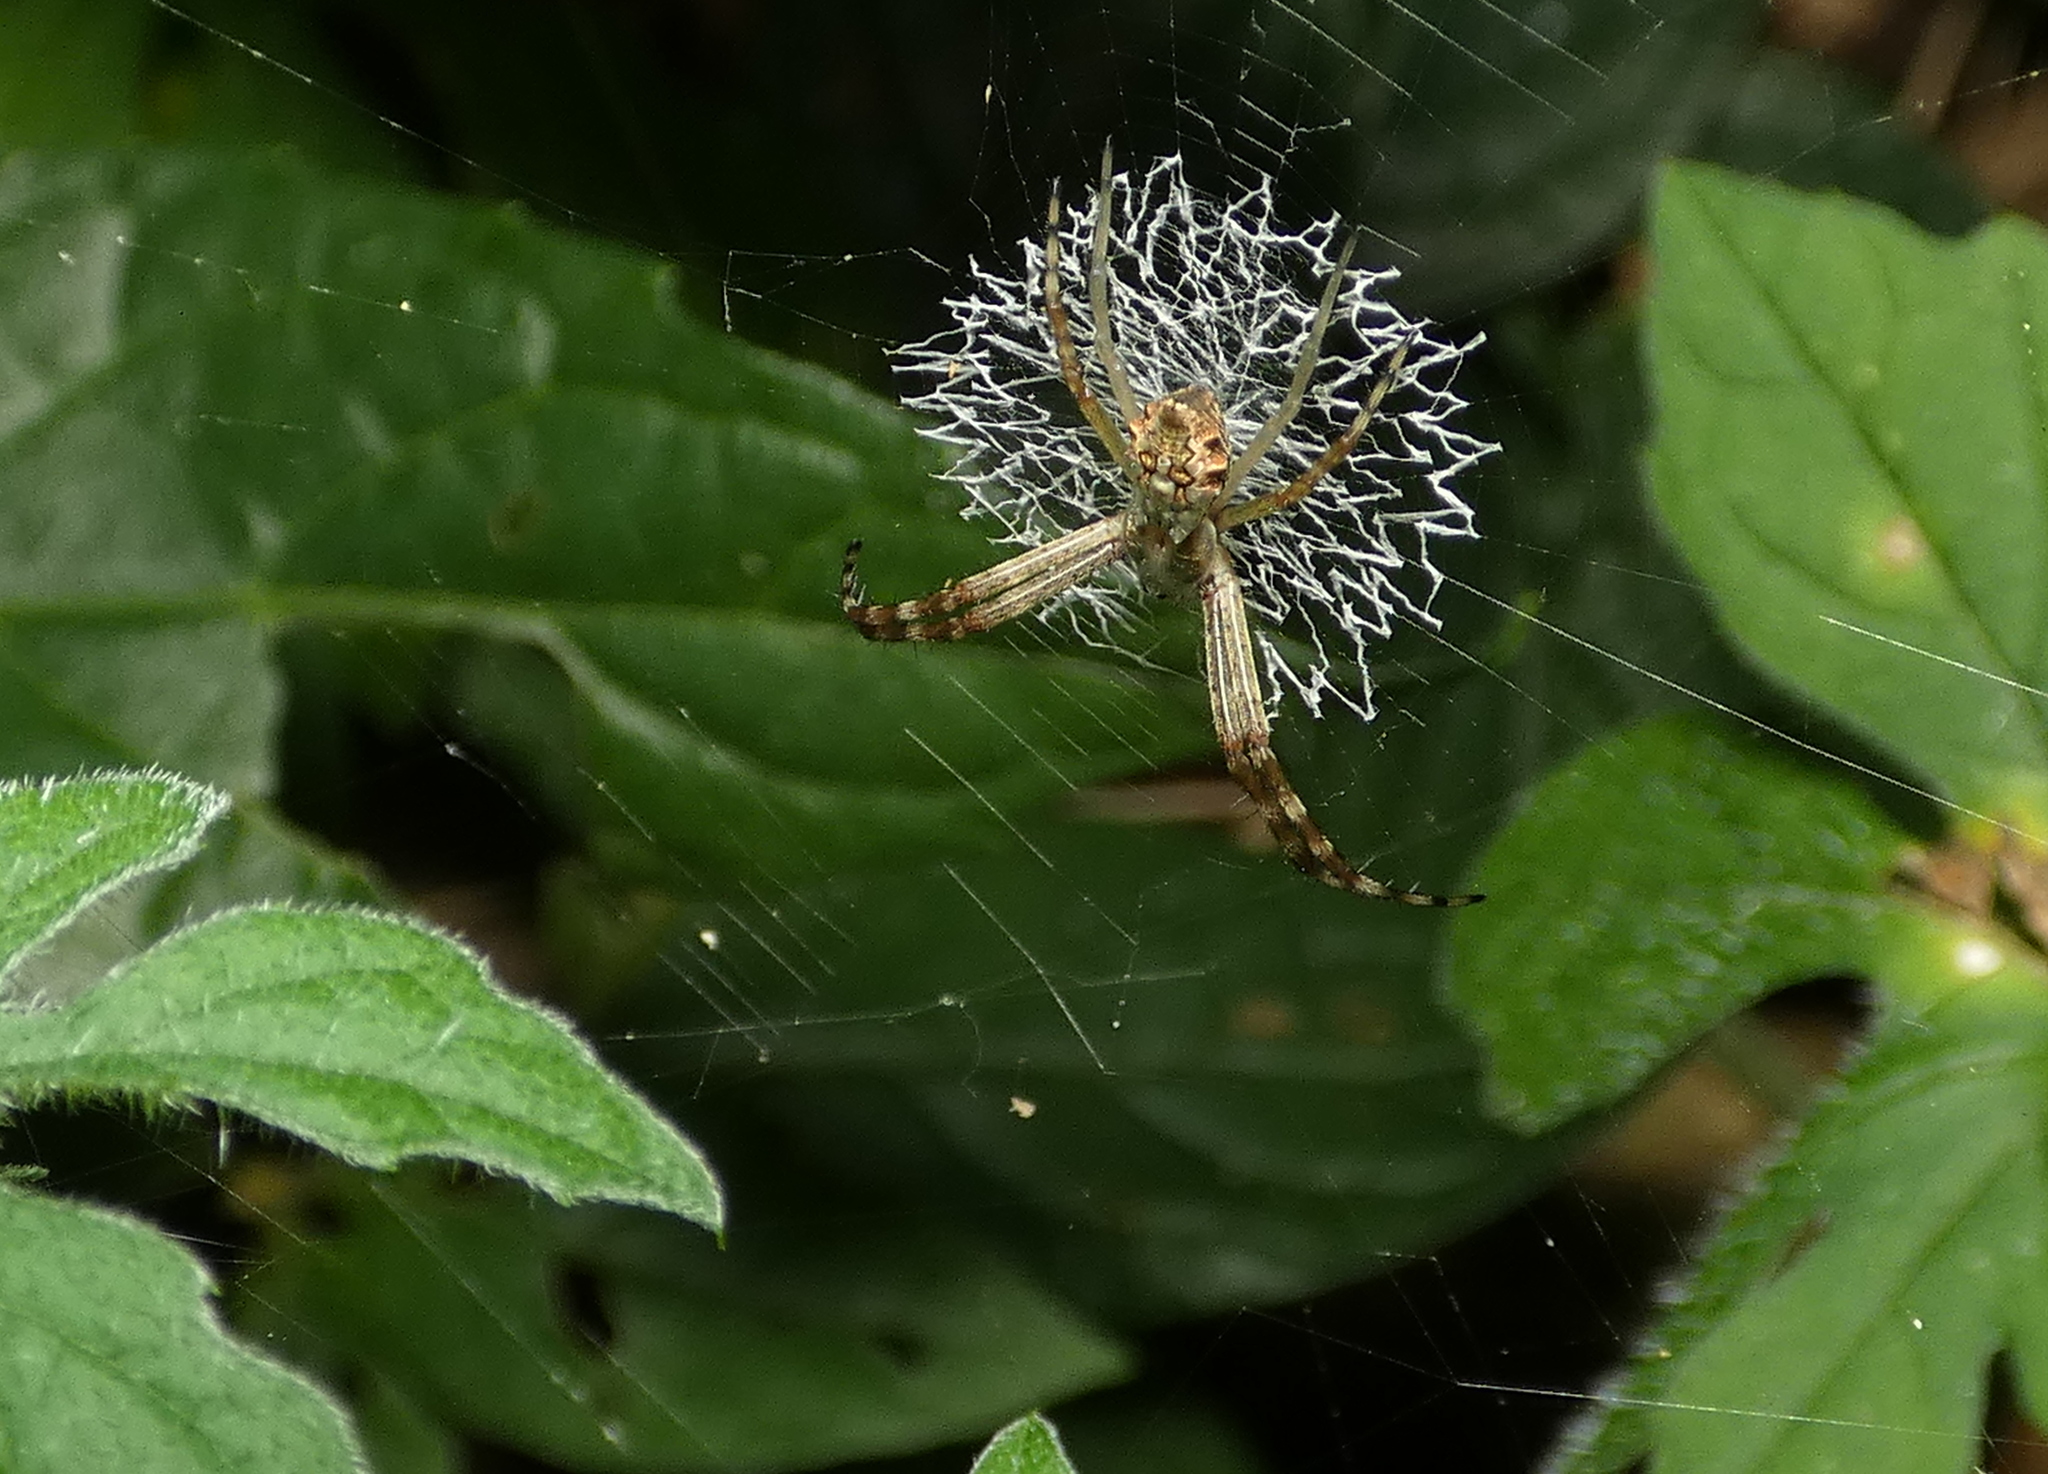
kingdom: Animalia
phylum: Arthropoda
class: Arachnida
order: Araneae
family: Araneidae
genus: Argiope
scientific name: Argiope argentata
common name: Orb weavers
